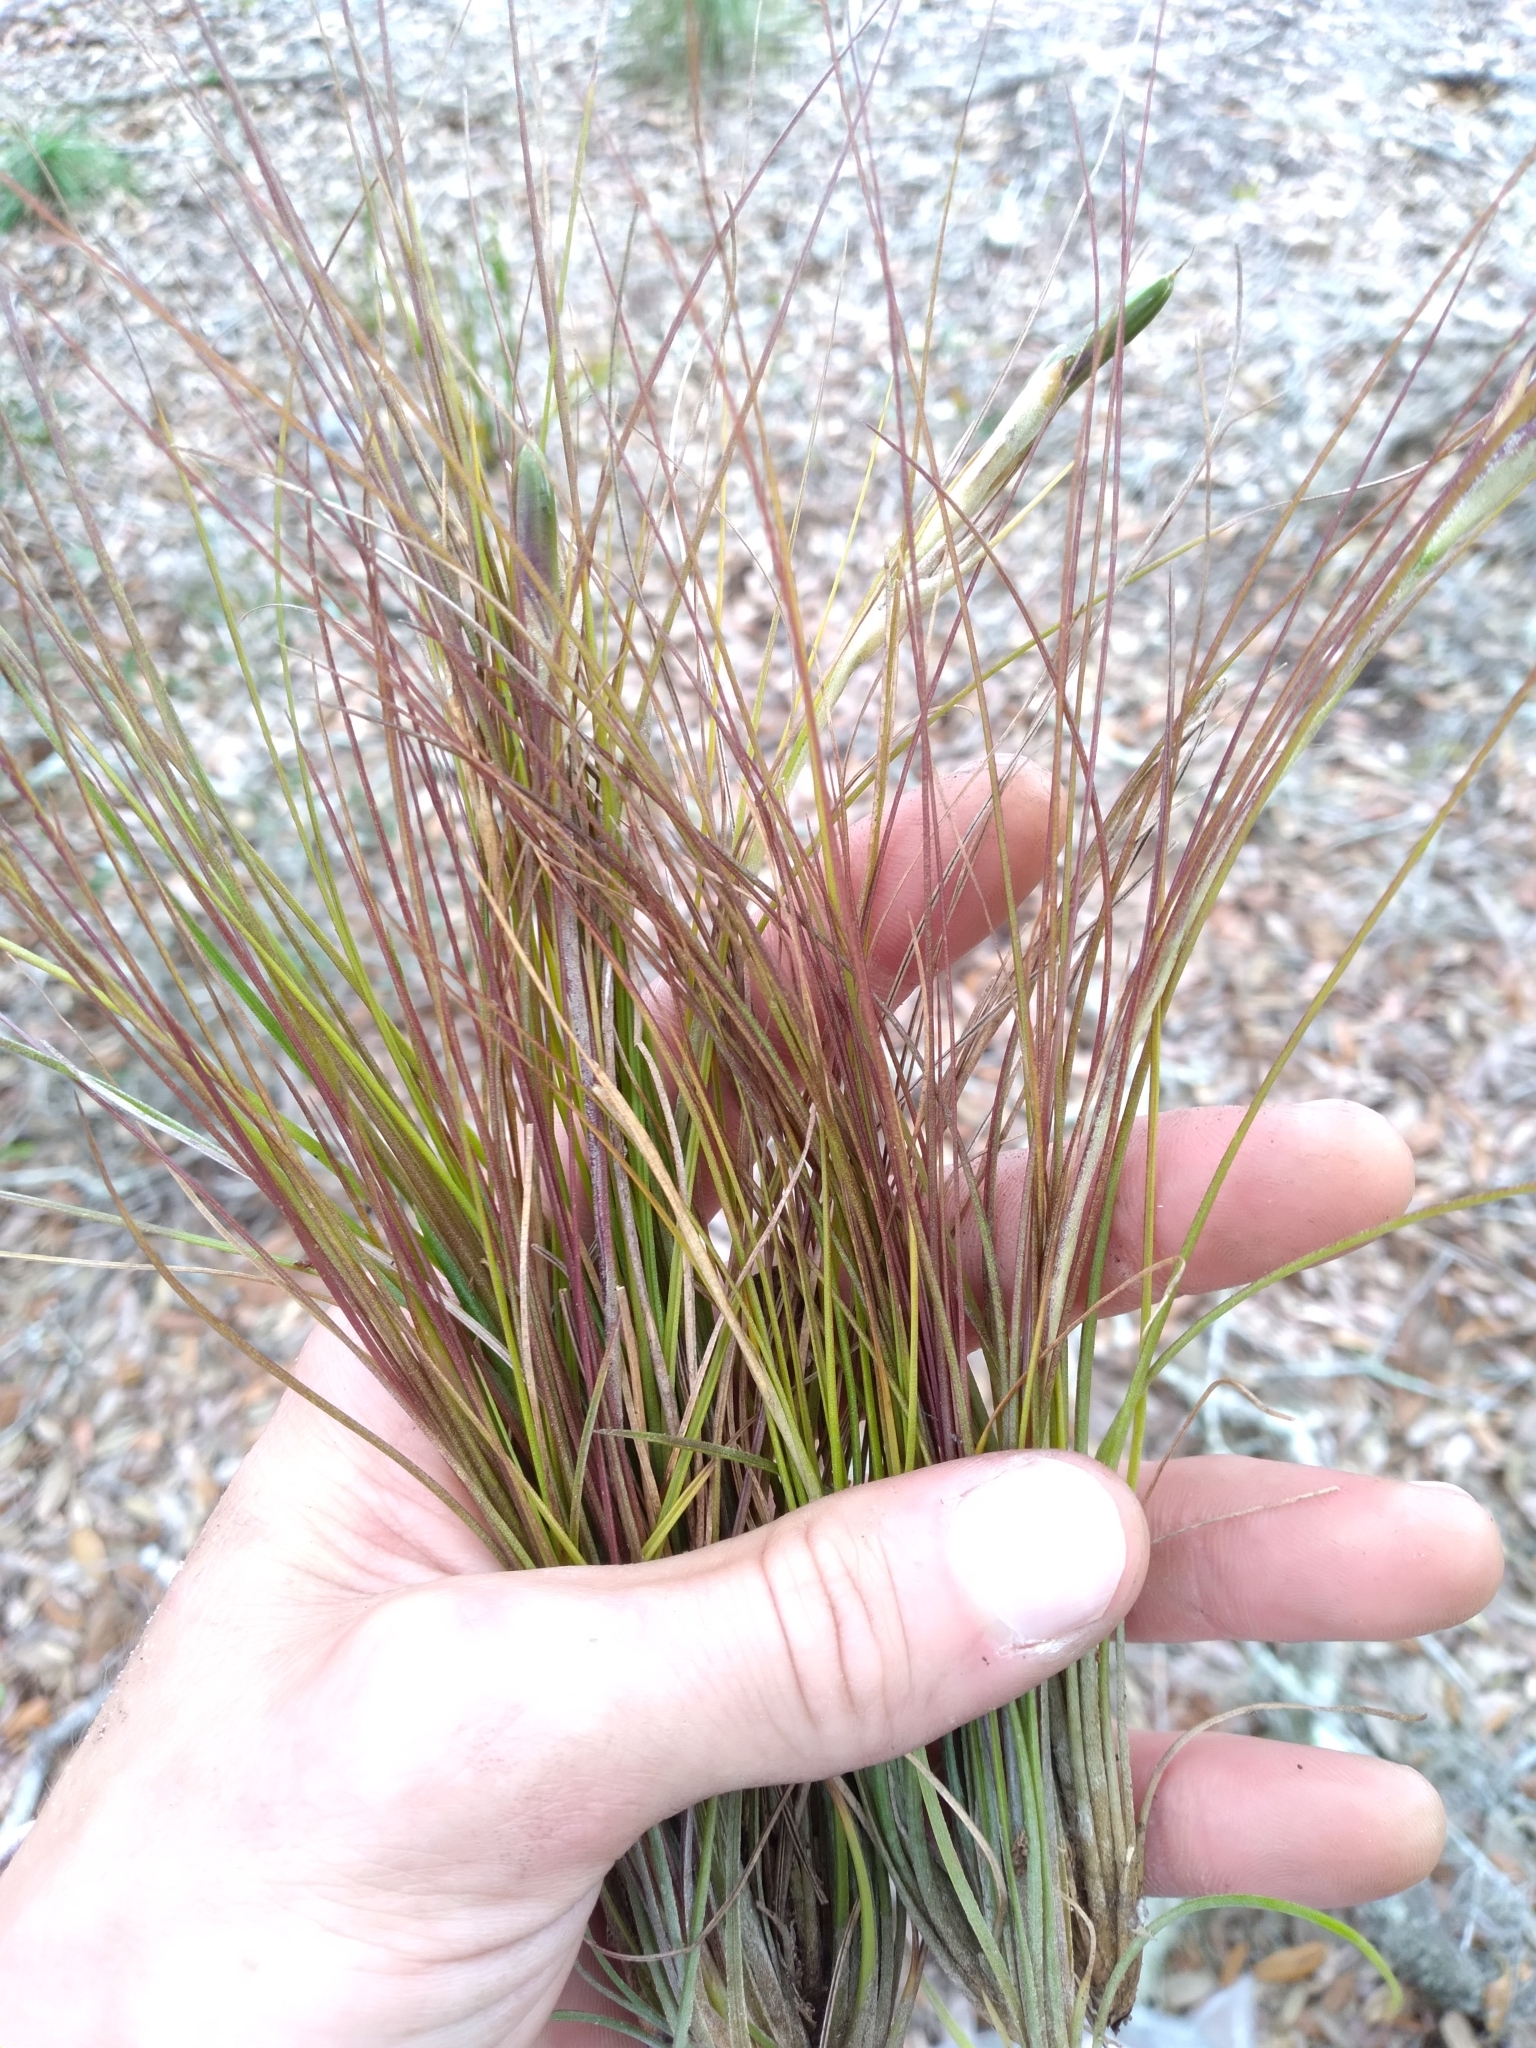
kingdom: Plantae
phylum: Tracheophyta
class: Liliopsida
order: Poales
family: Bromeliaceae
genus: Tillandsia
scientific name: Tillandsia setacea
